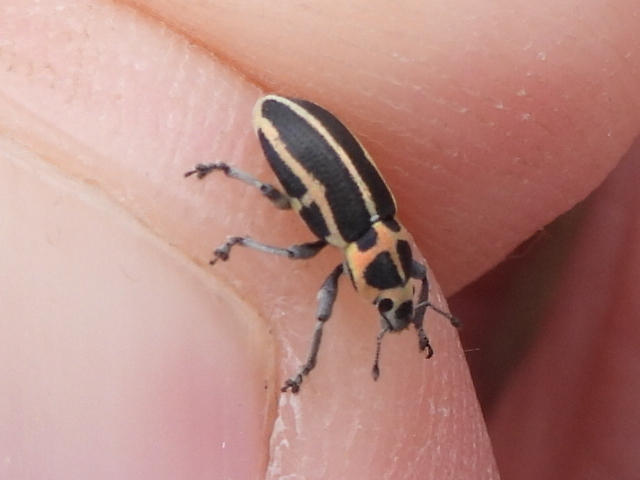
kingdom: Animalia
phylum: Arthropoda
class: Insecta
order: Coleoptera
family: Curculionidae
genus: Eudiagogus
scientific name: Eudiagogus pulcher
